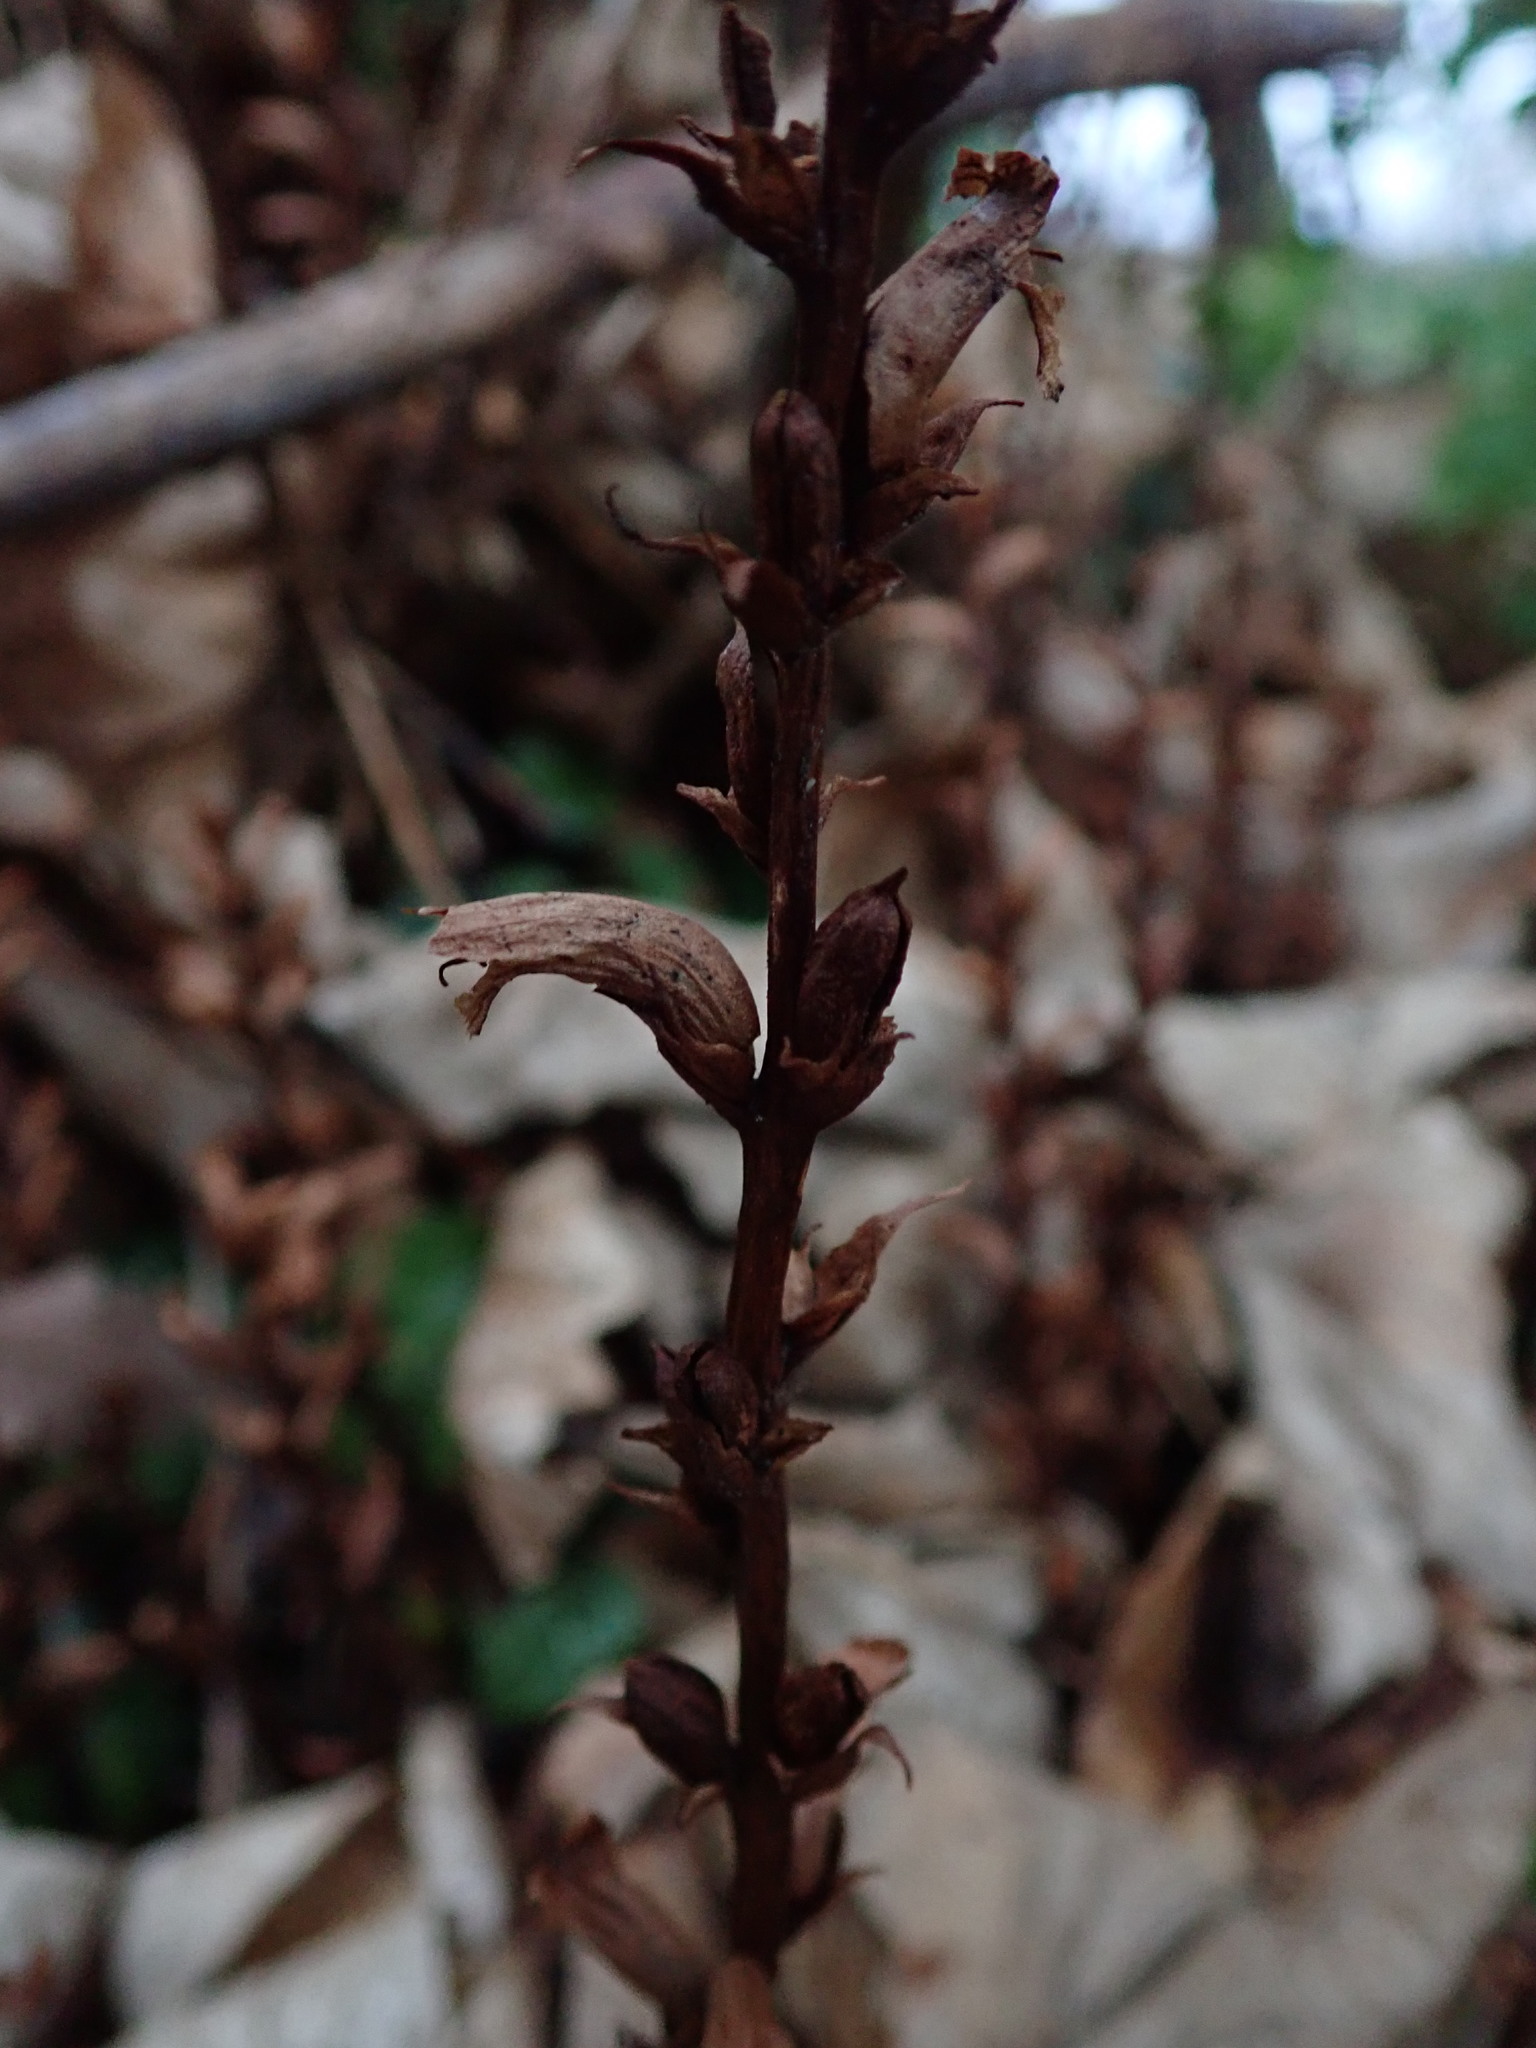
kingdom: Plantae
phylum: Tracheophyta
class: Magnoliopsida
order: Lamiales
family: Orobanchaceae
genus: Orobanche
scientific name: Orobanche hederae
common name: Ivy broomrape
